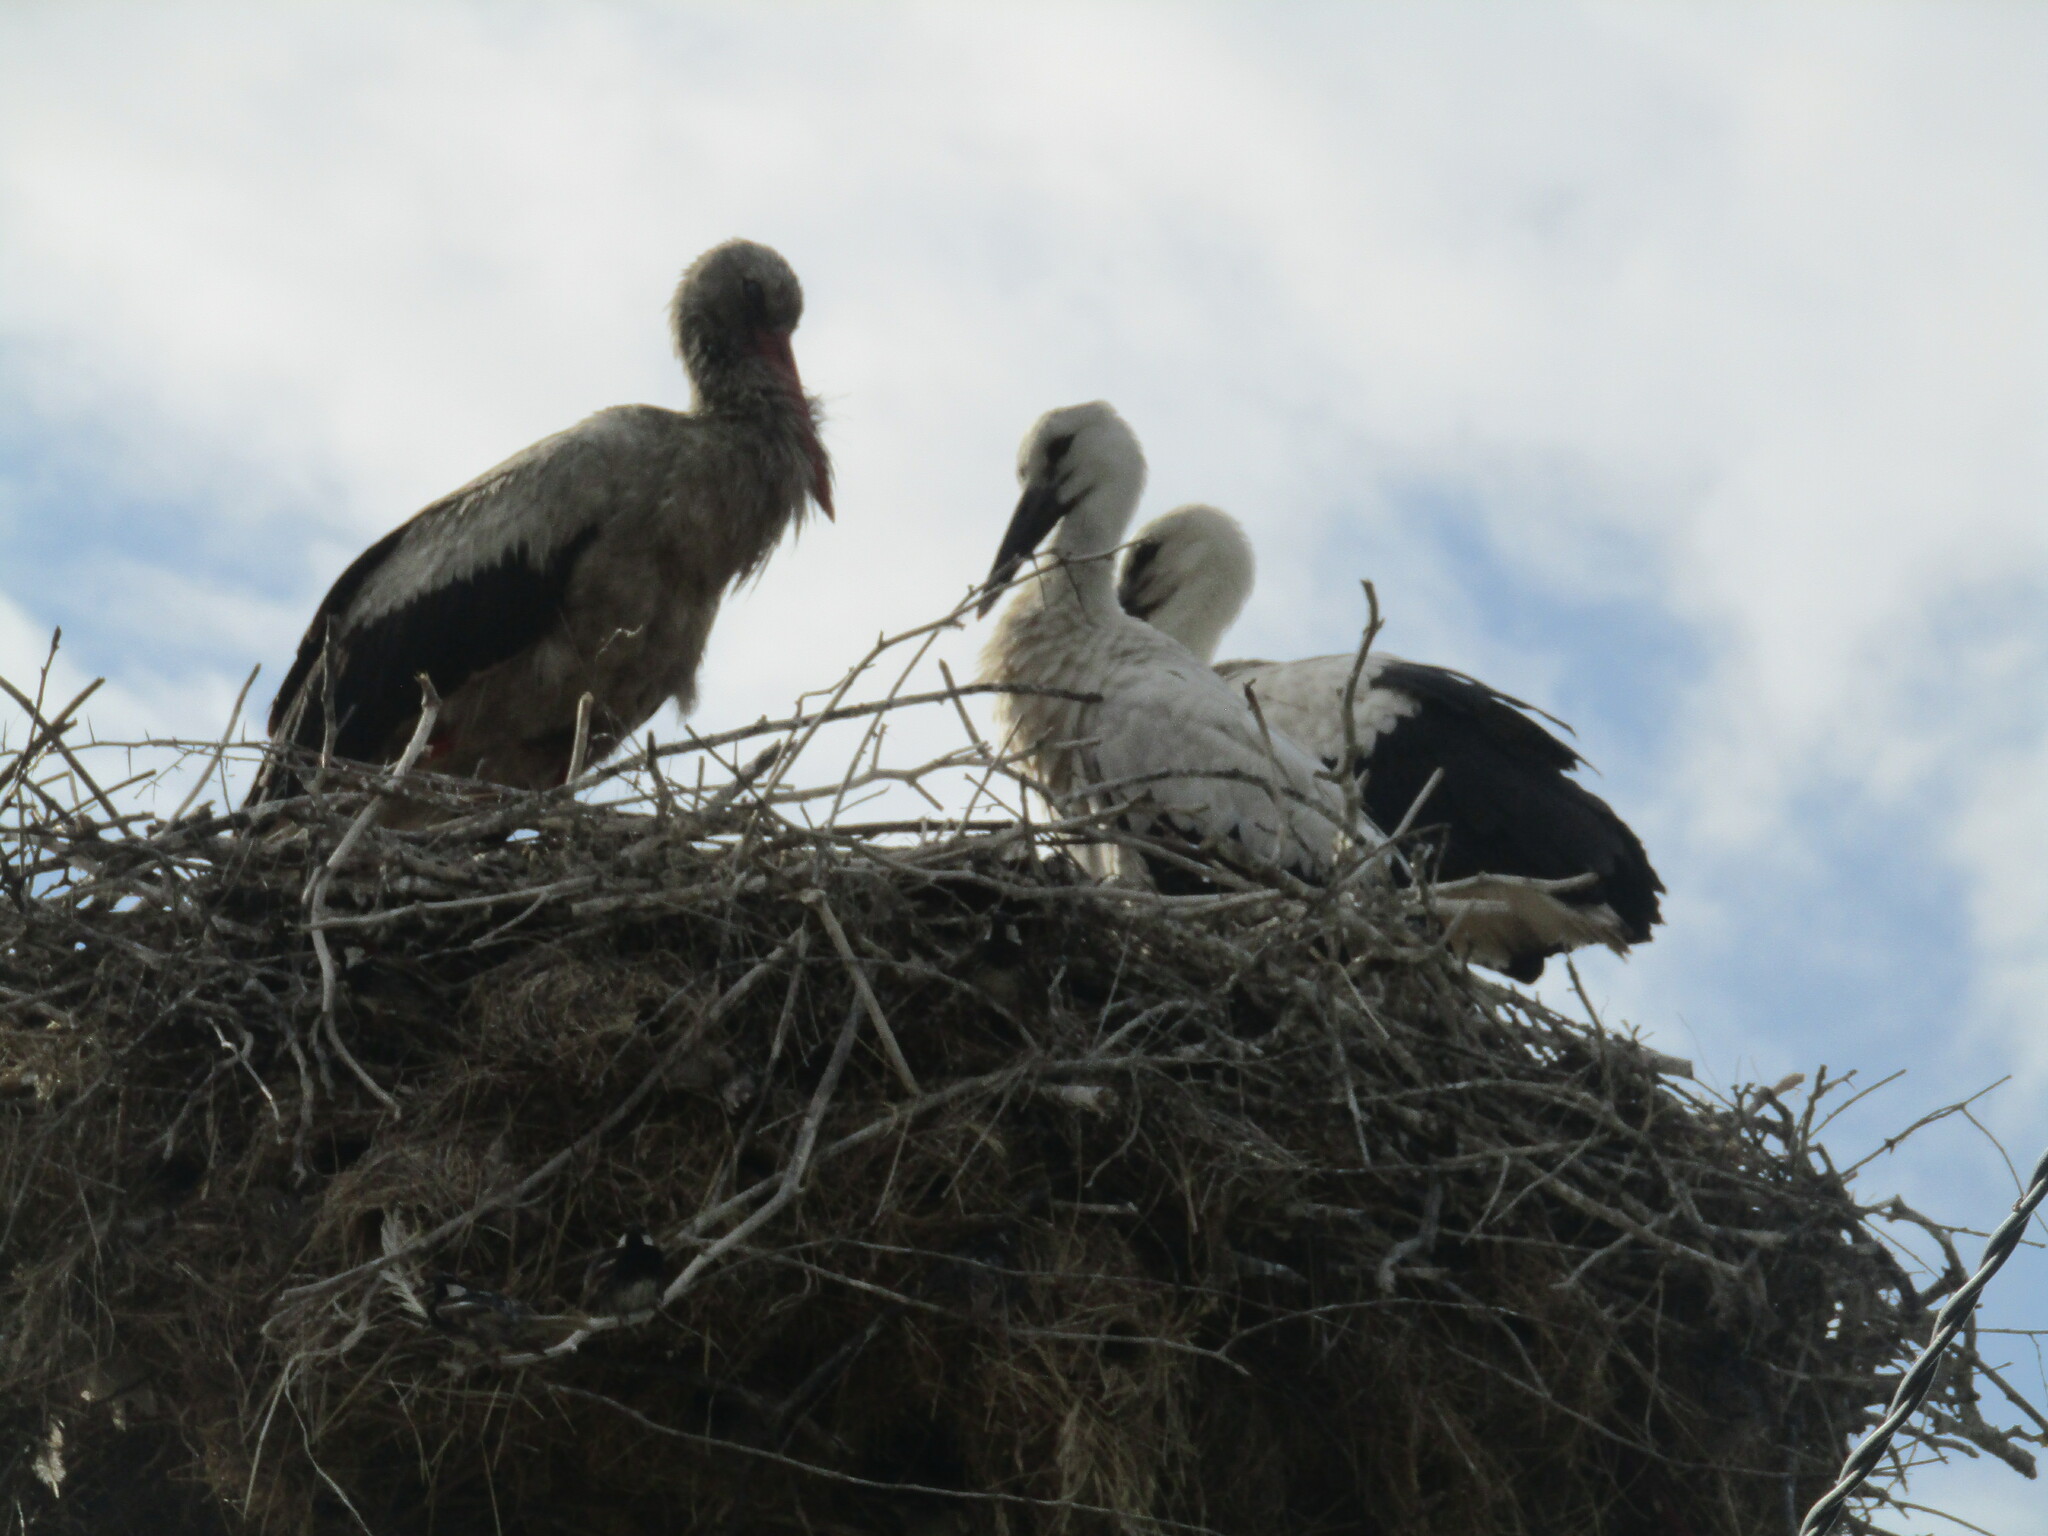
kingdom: Animalia
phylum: Chordata
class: Aves
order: Ciconiiformes
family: Ciconiidae
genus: Ciconia
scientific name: Ciconia ciconia
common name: White stork
